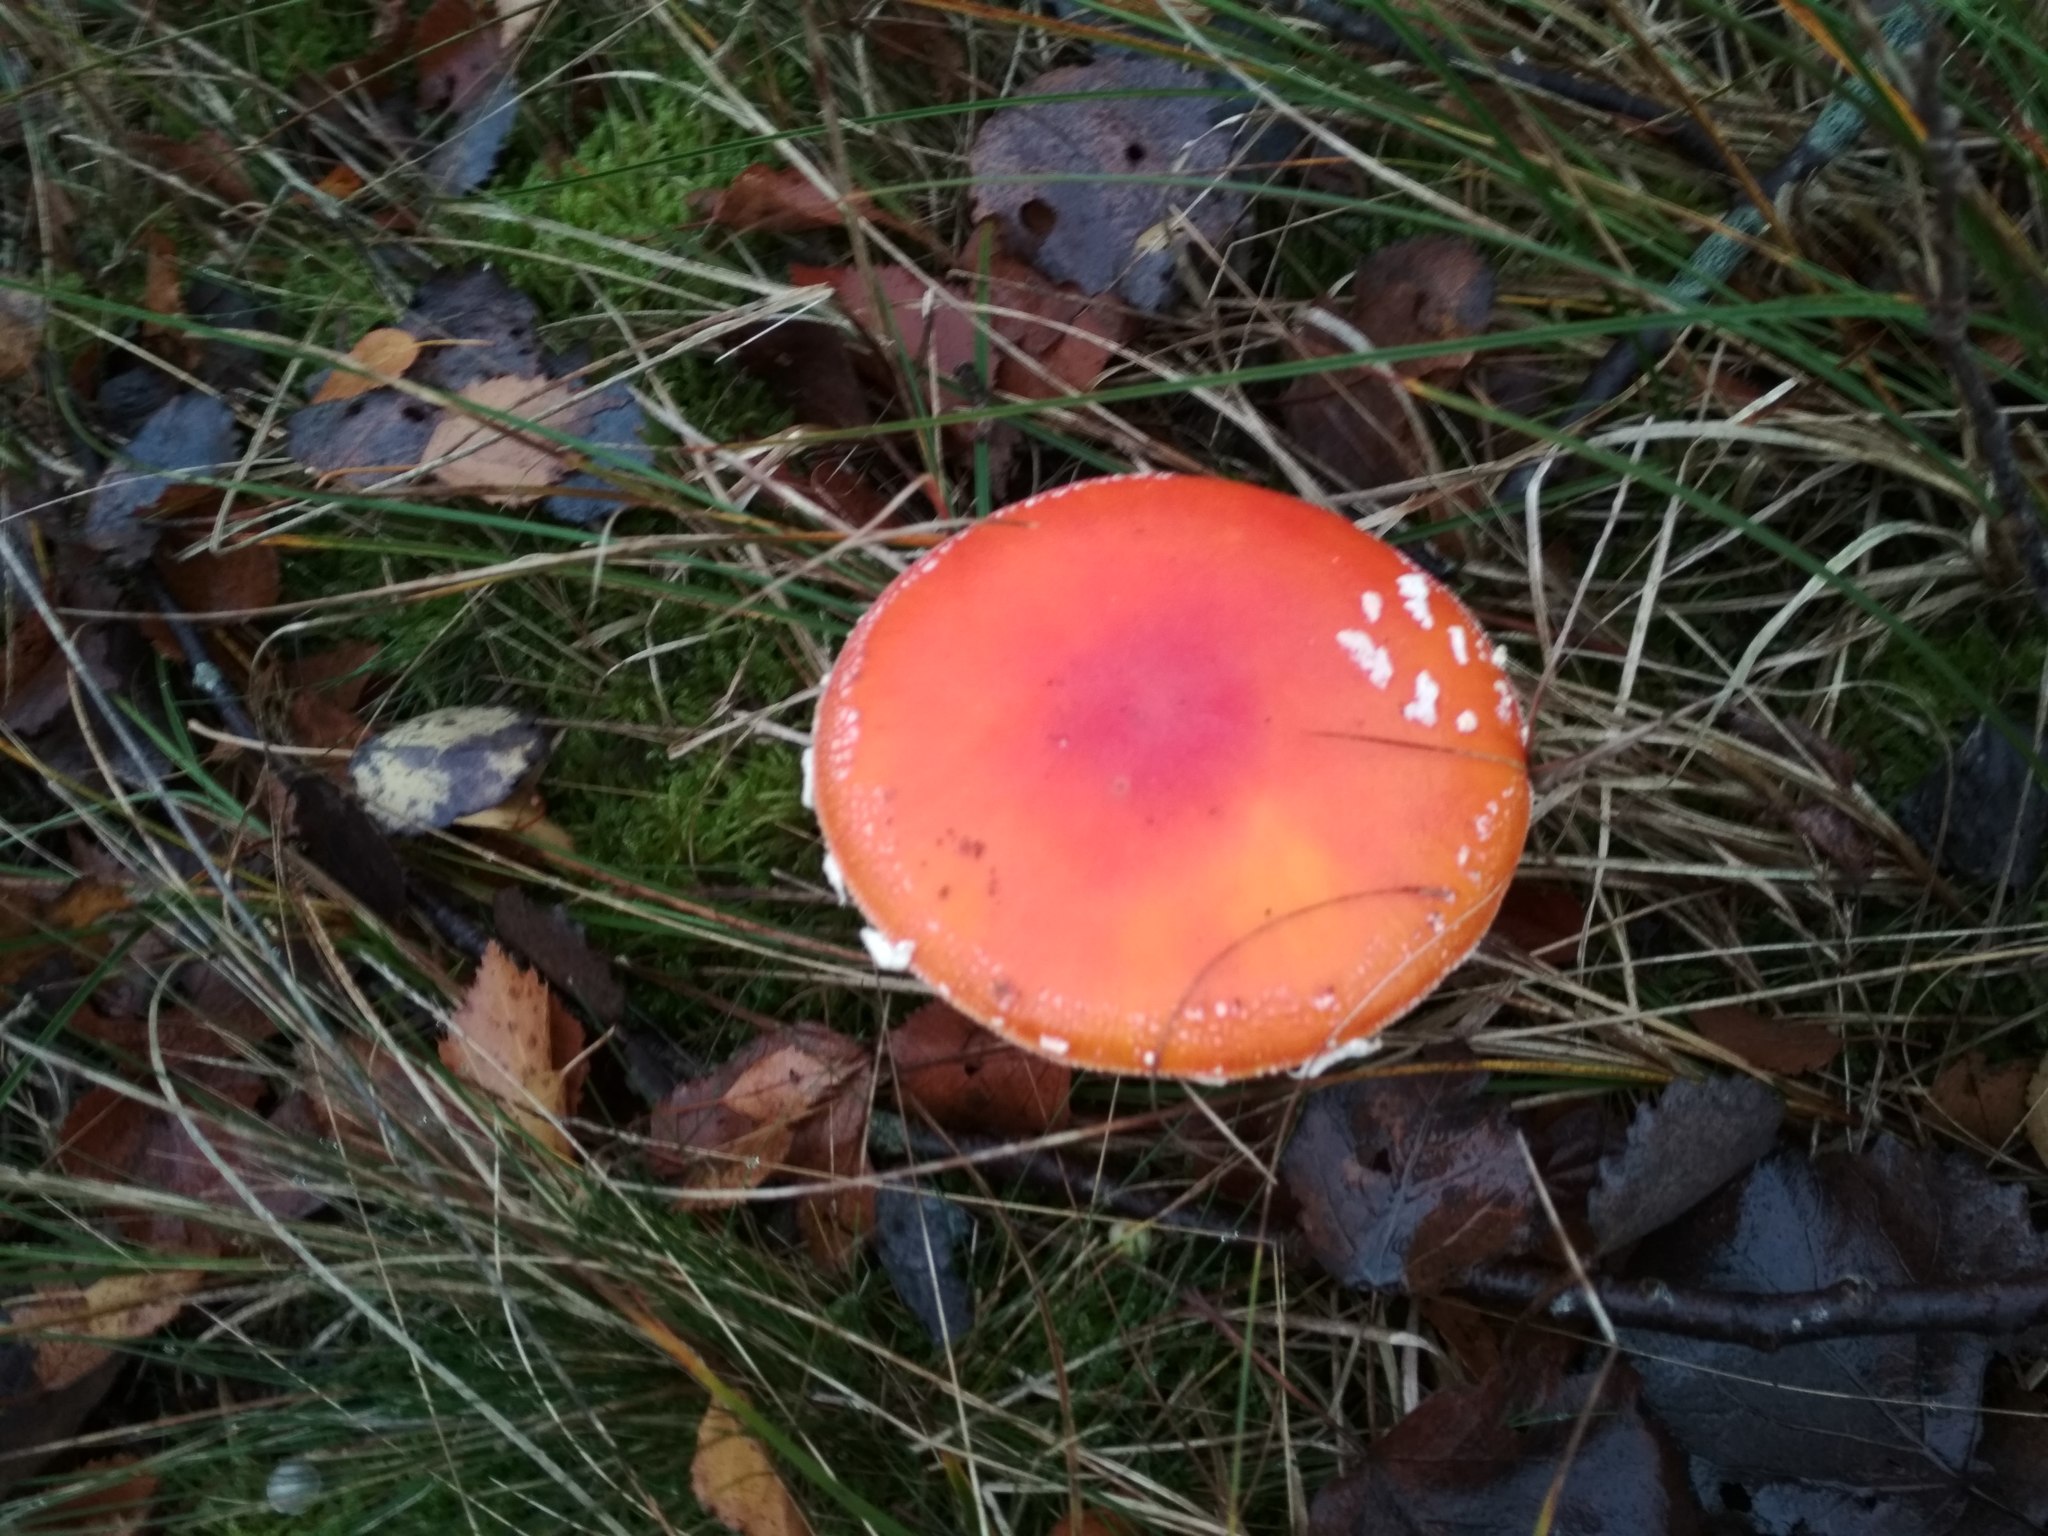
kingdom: Fungi
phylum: Basidiomycota
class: Agaricomycetes
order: Agaricales
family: Amanitaceae
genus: Amanita
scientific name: Amanita muscaria
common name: Fly agaric
